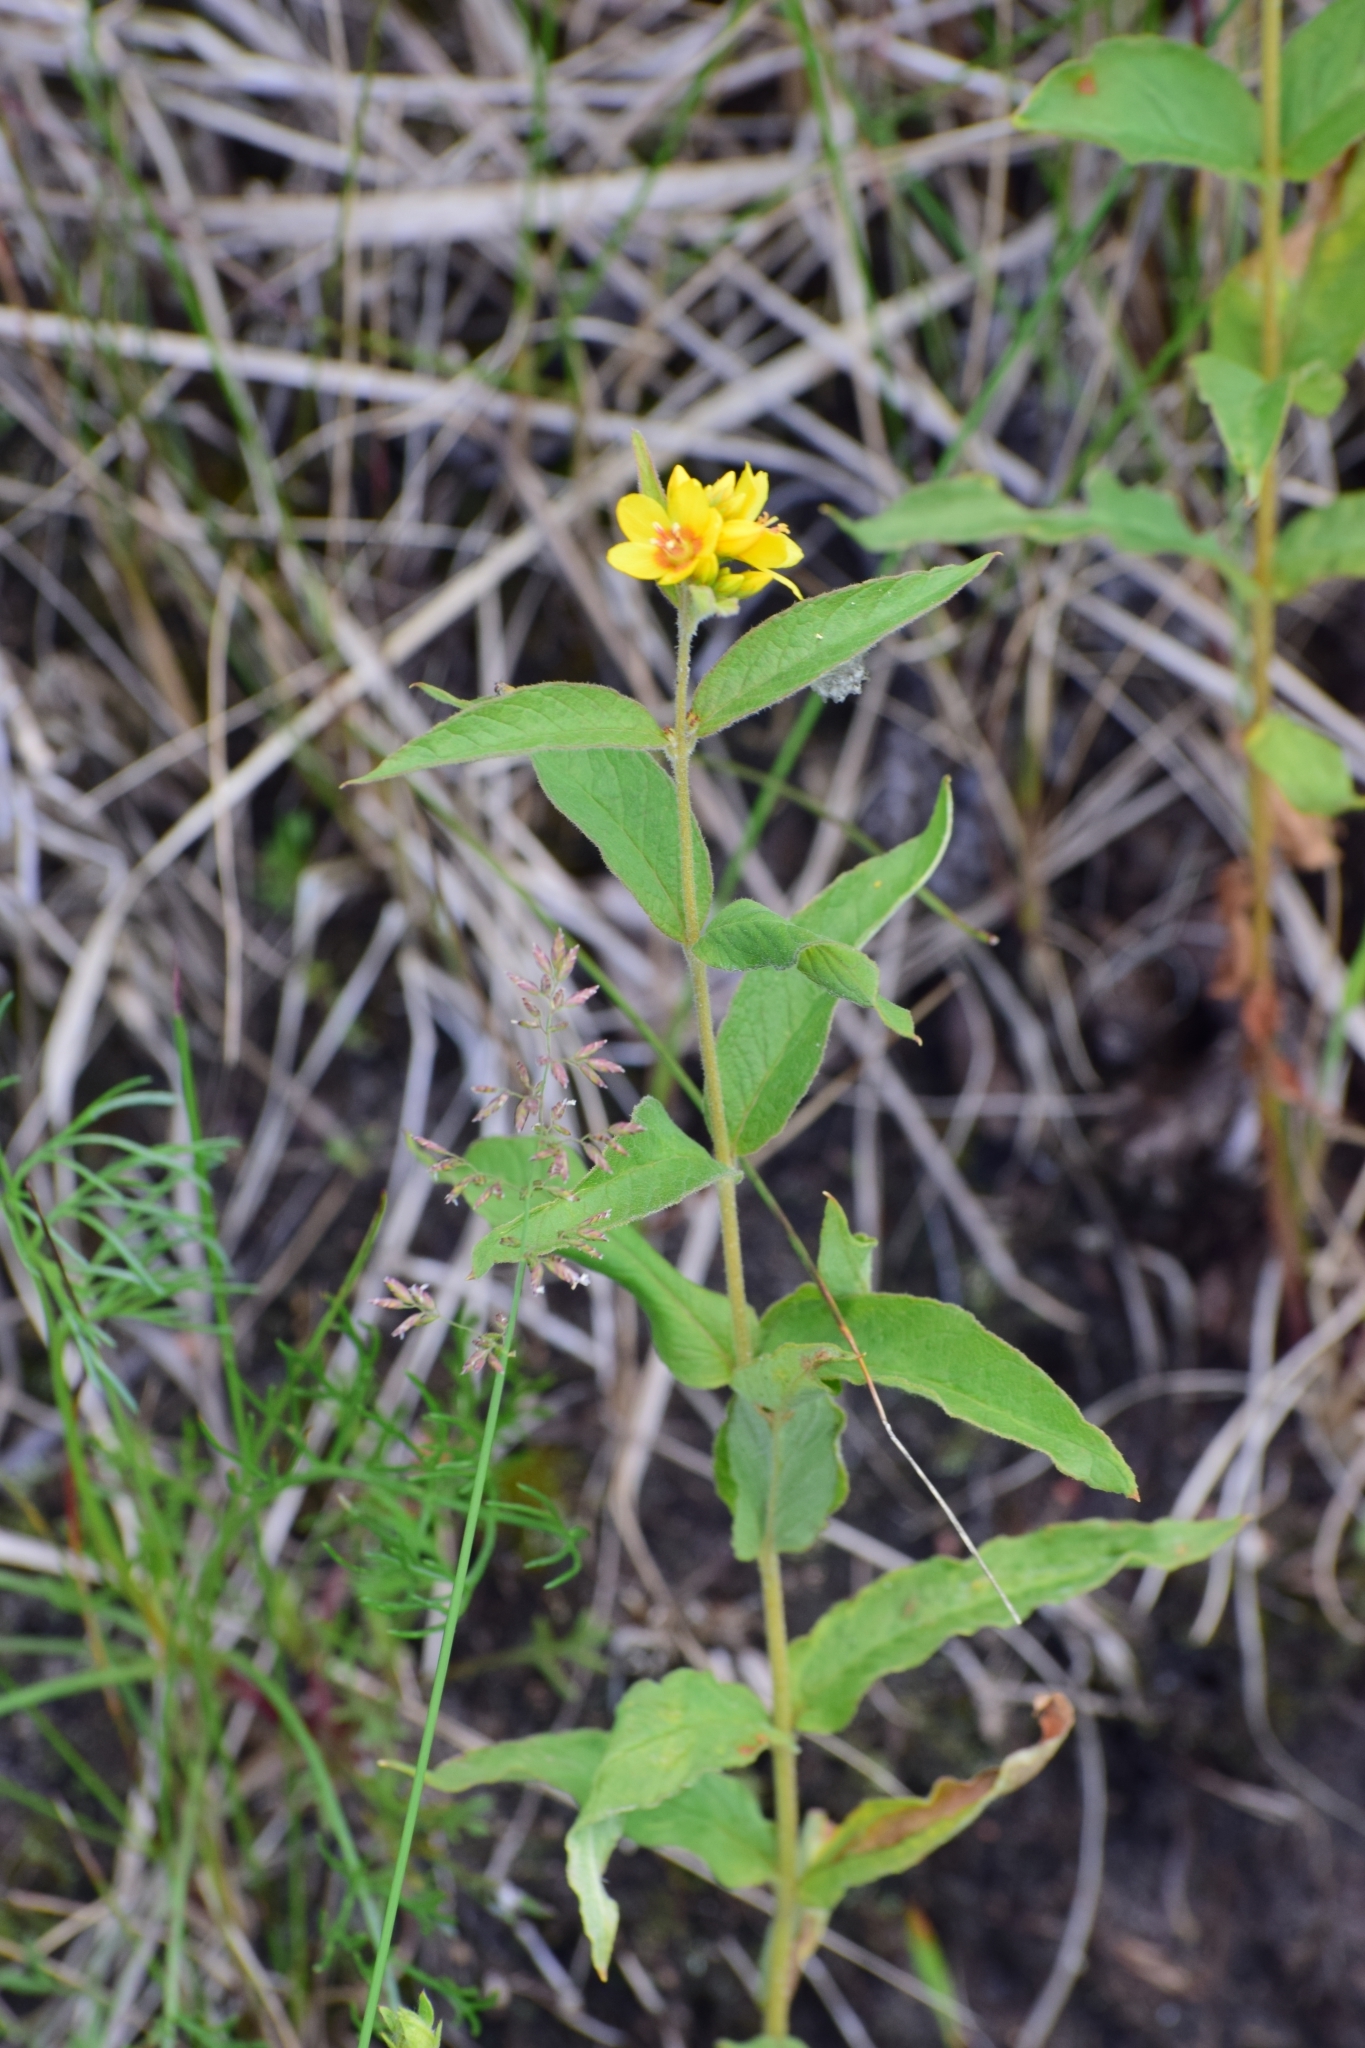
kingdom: Plantae
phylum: Tracheophyta
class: Magnoliopsida
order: Ericales
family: Primulaceae
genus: Lysimachia
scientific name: Lysimachia vulgaris
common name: Yellow loosestrife
